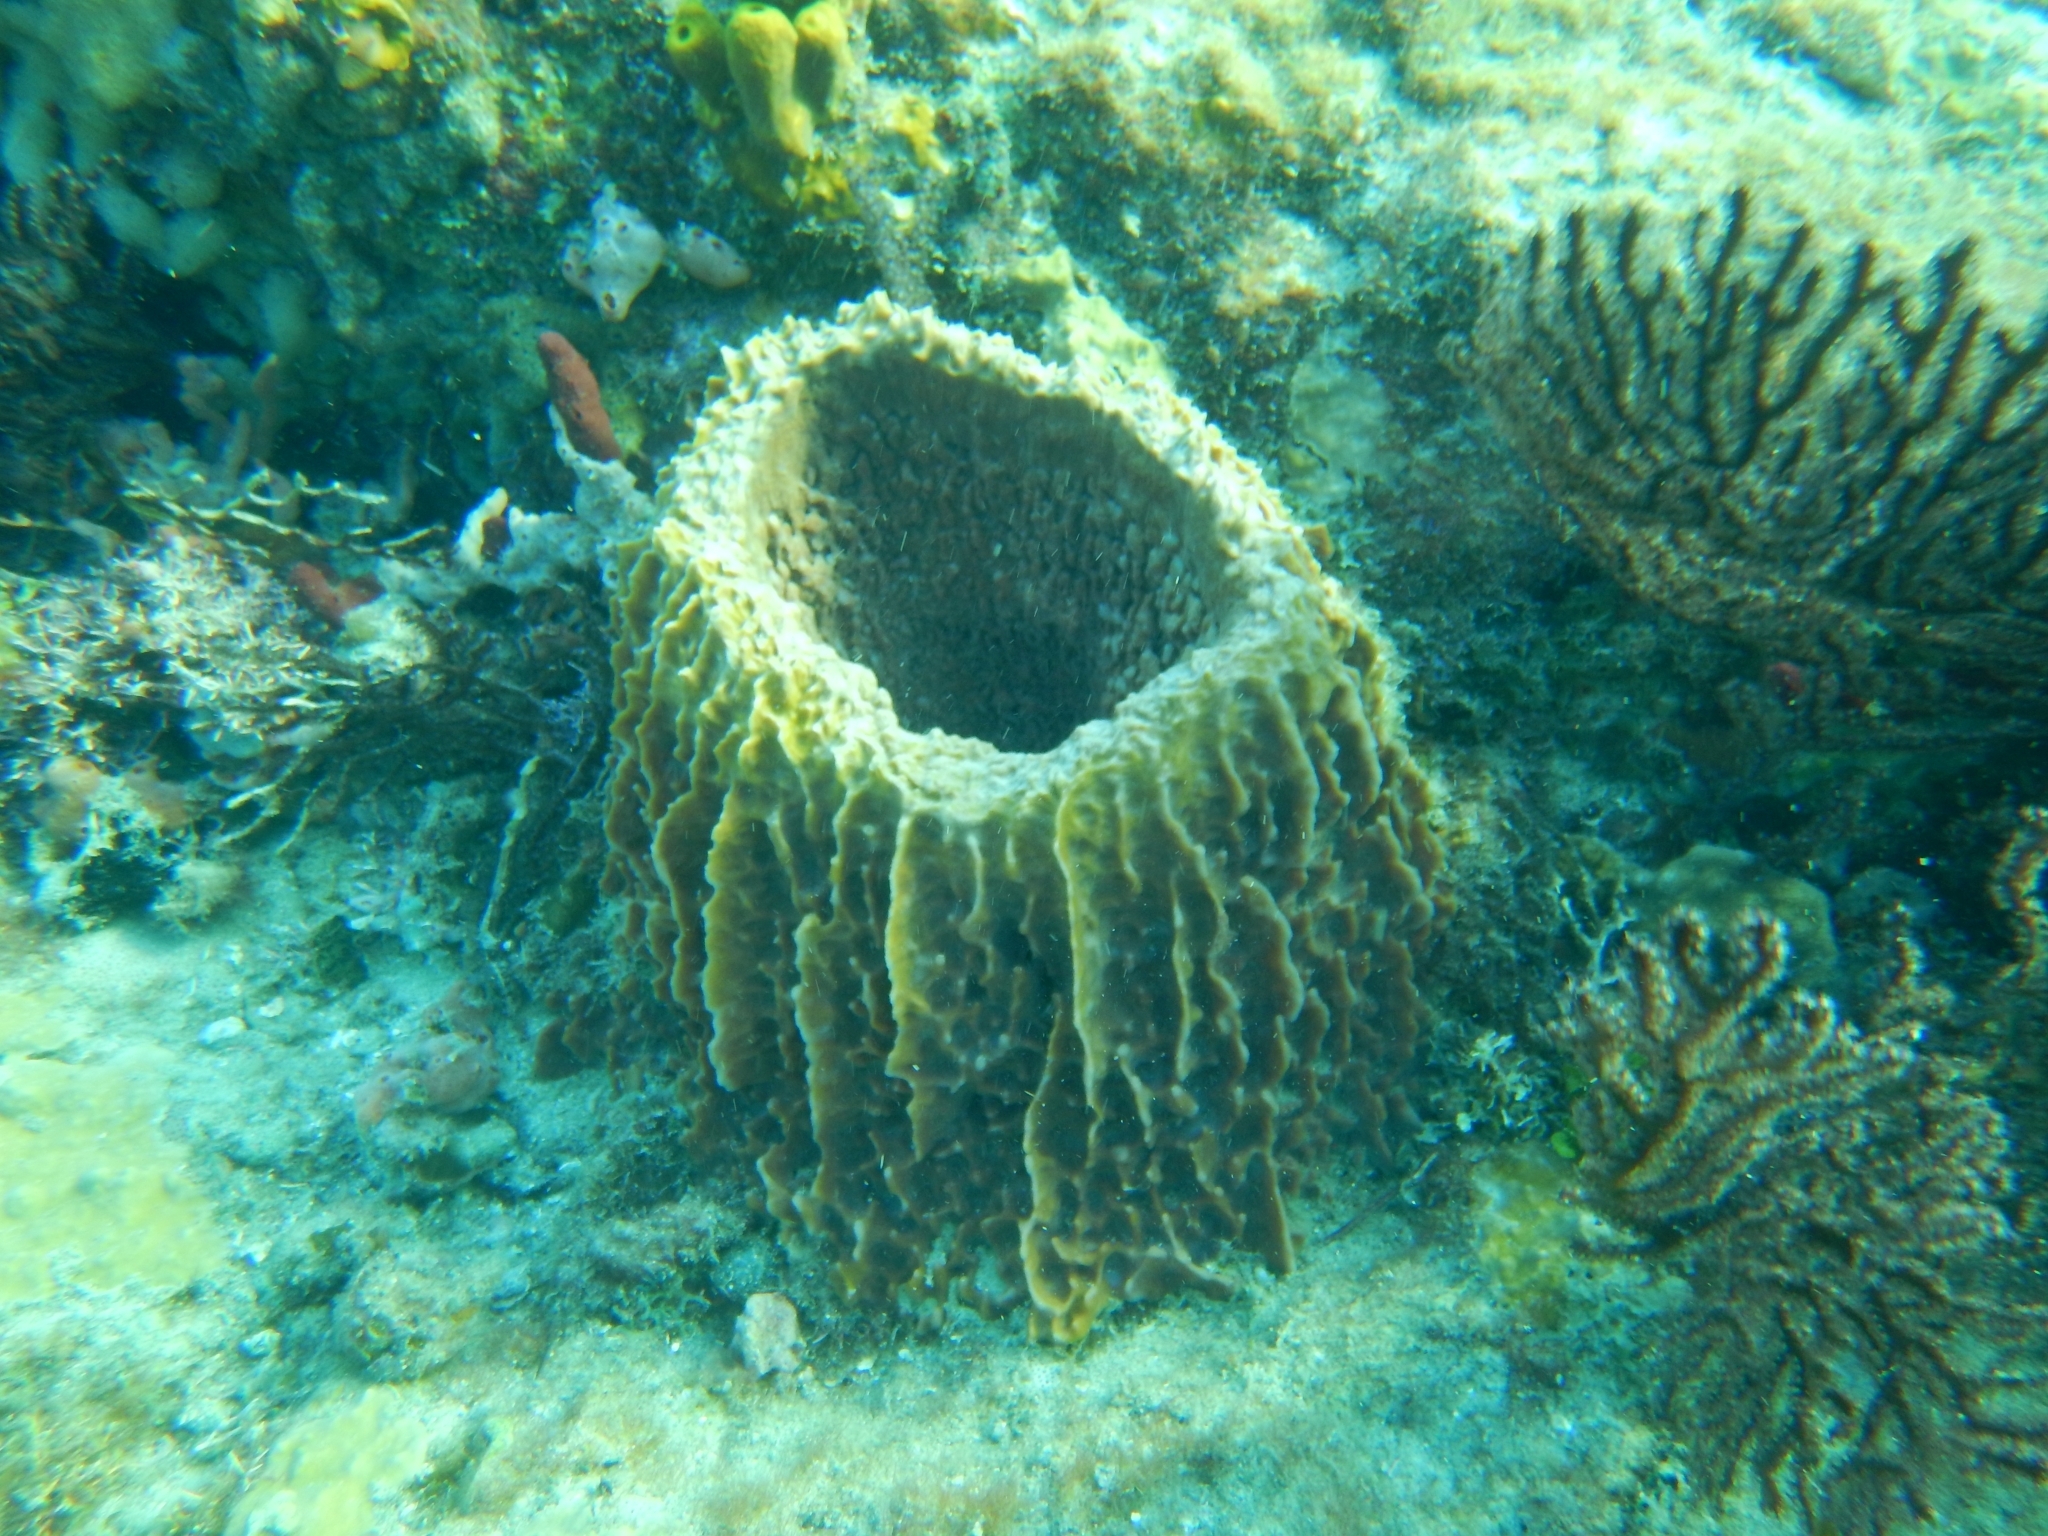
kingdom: Animalia
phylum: Porifera
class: Demospongiae
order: Haplosclerida
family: Petrosiidae
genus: Xestospongia
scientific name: Xestospongia muta
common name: Giant barrel sponge
